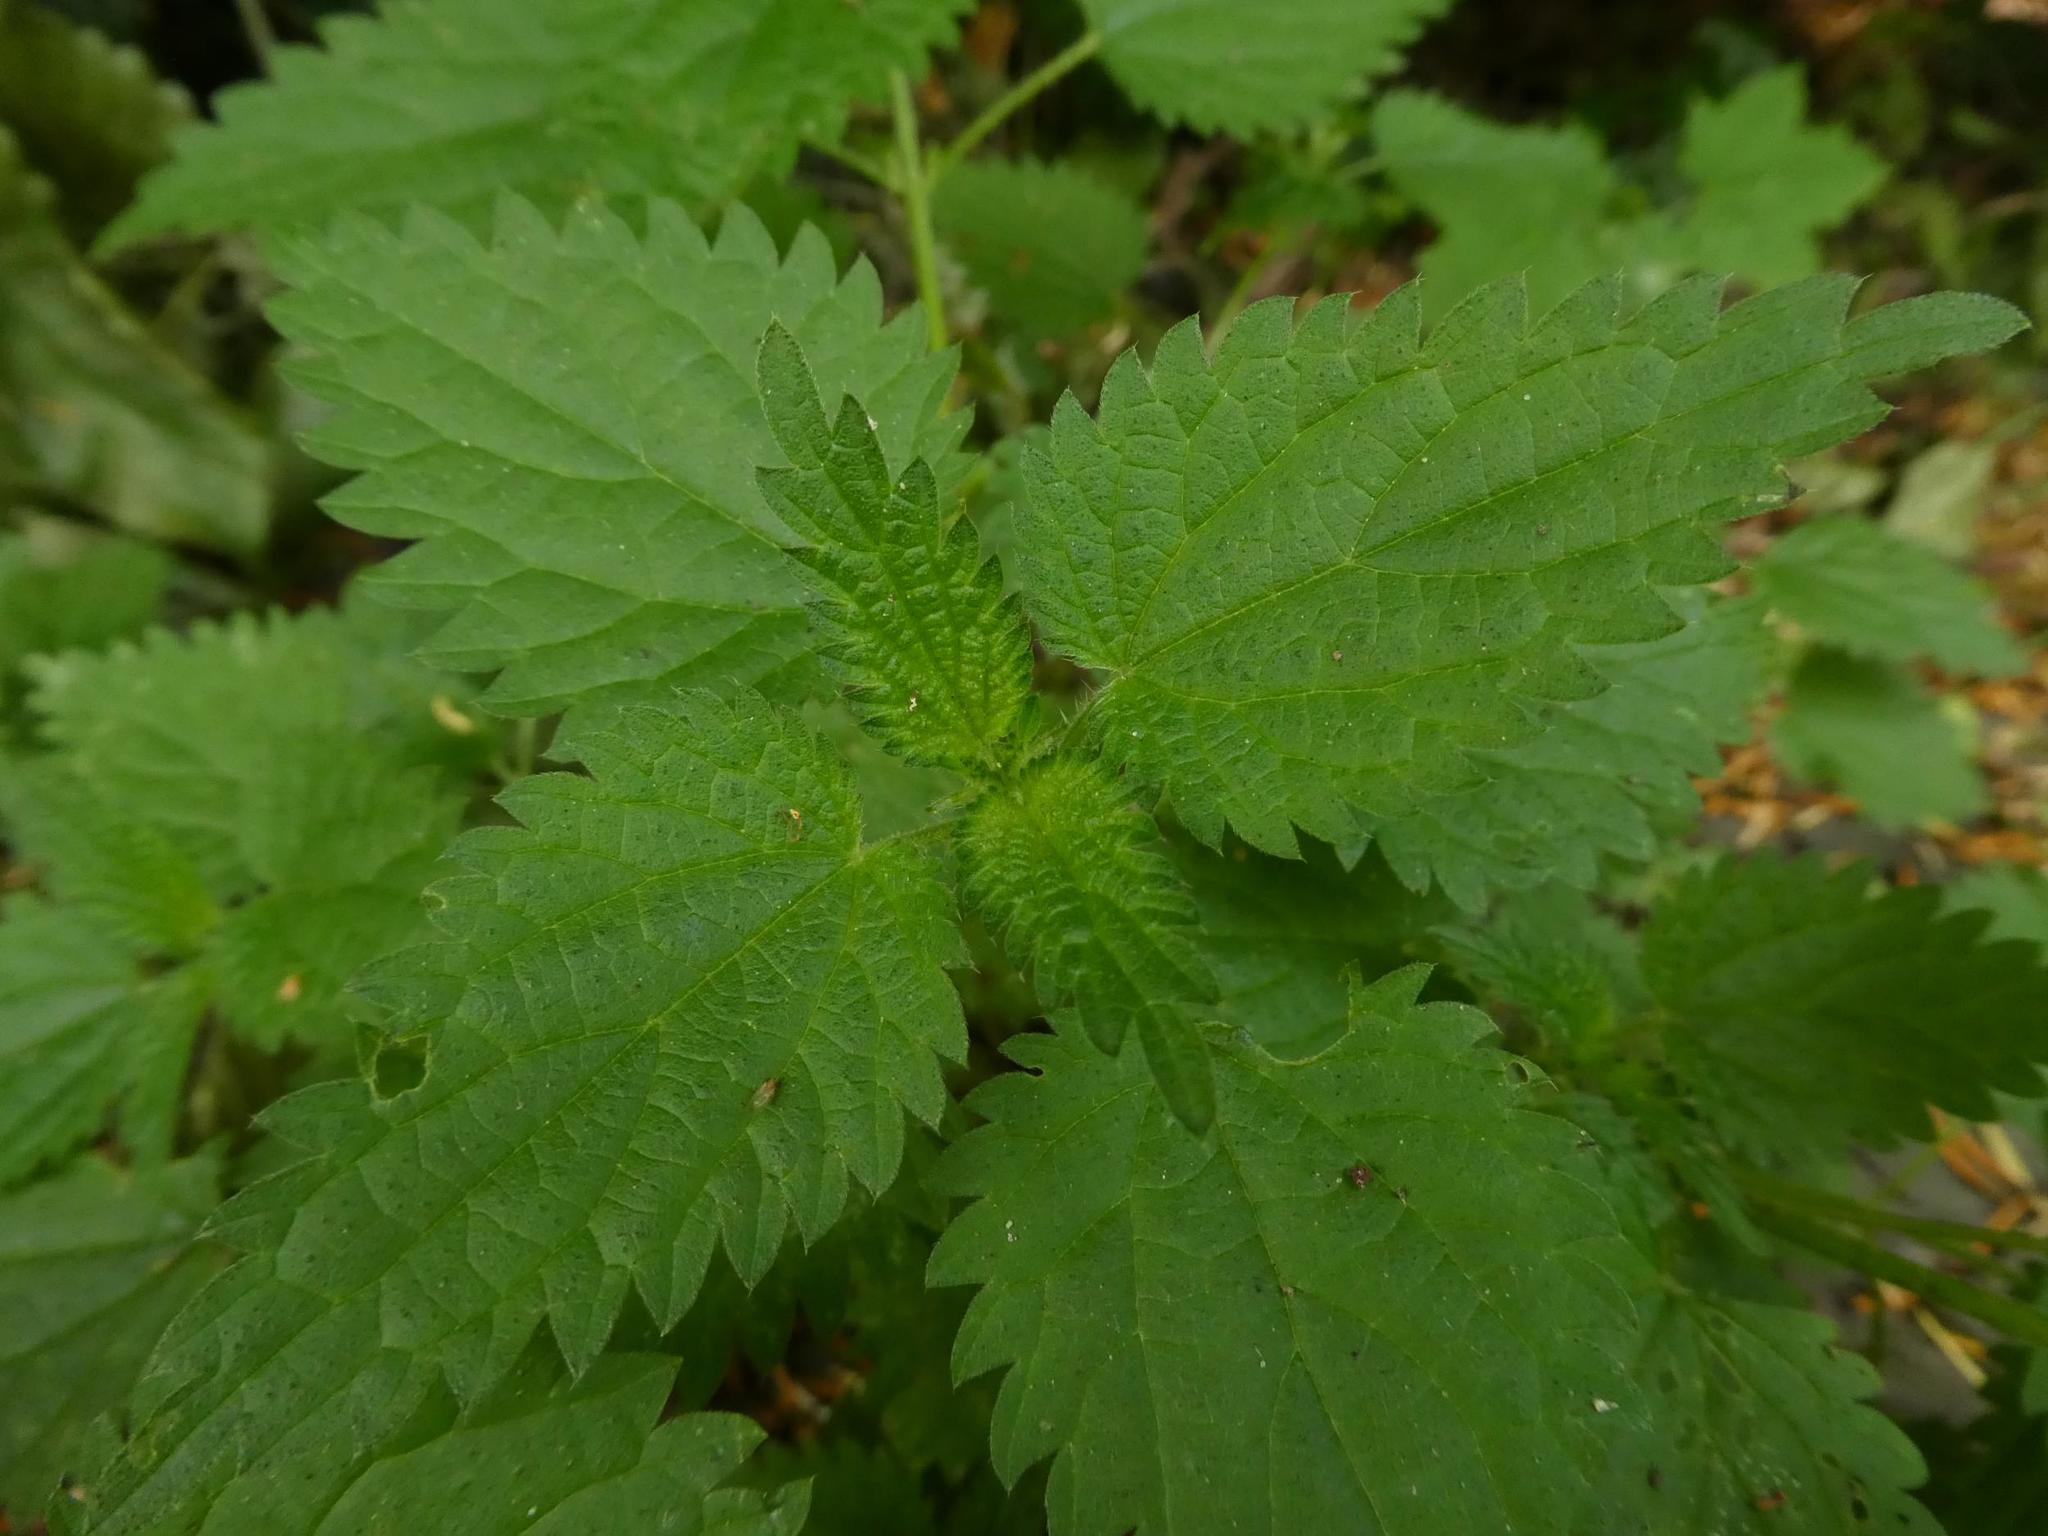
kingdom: Plantae
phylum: Tracheophyta
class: Magnoliopsida
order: Rosales
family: Urticaceae
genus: Urtica
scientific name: Urtica dioica
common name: Common nettle
